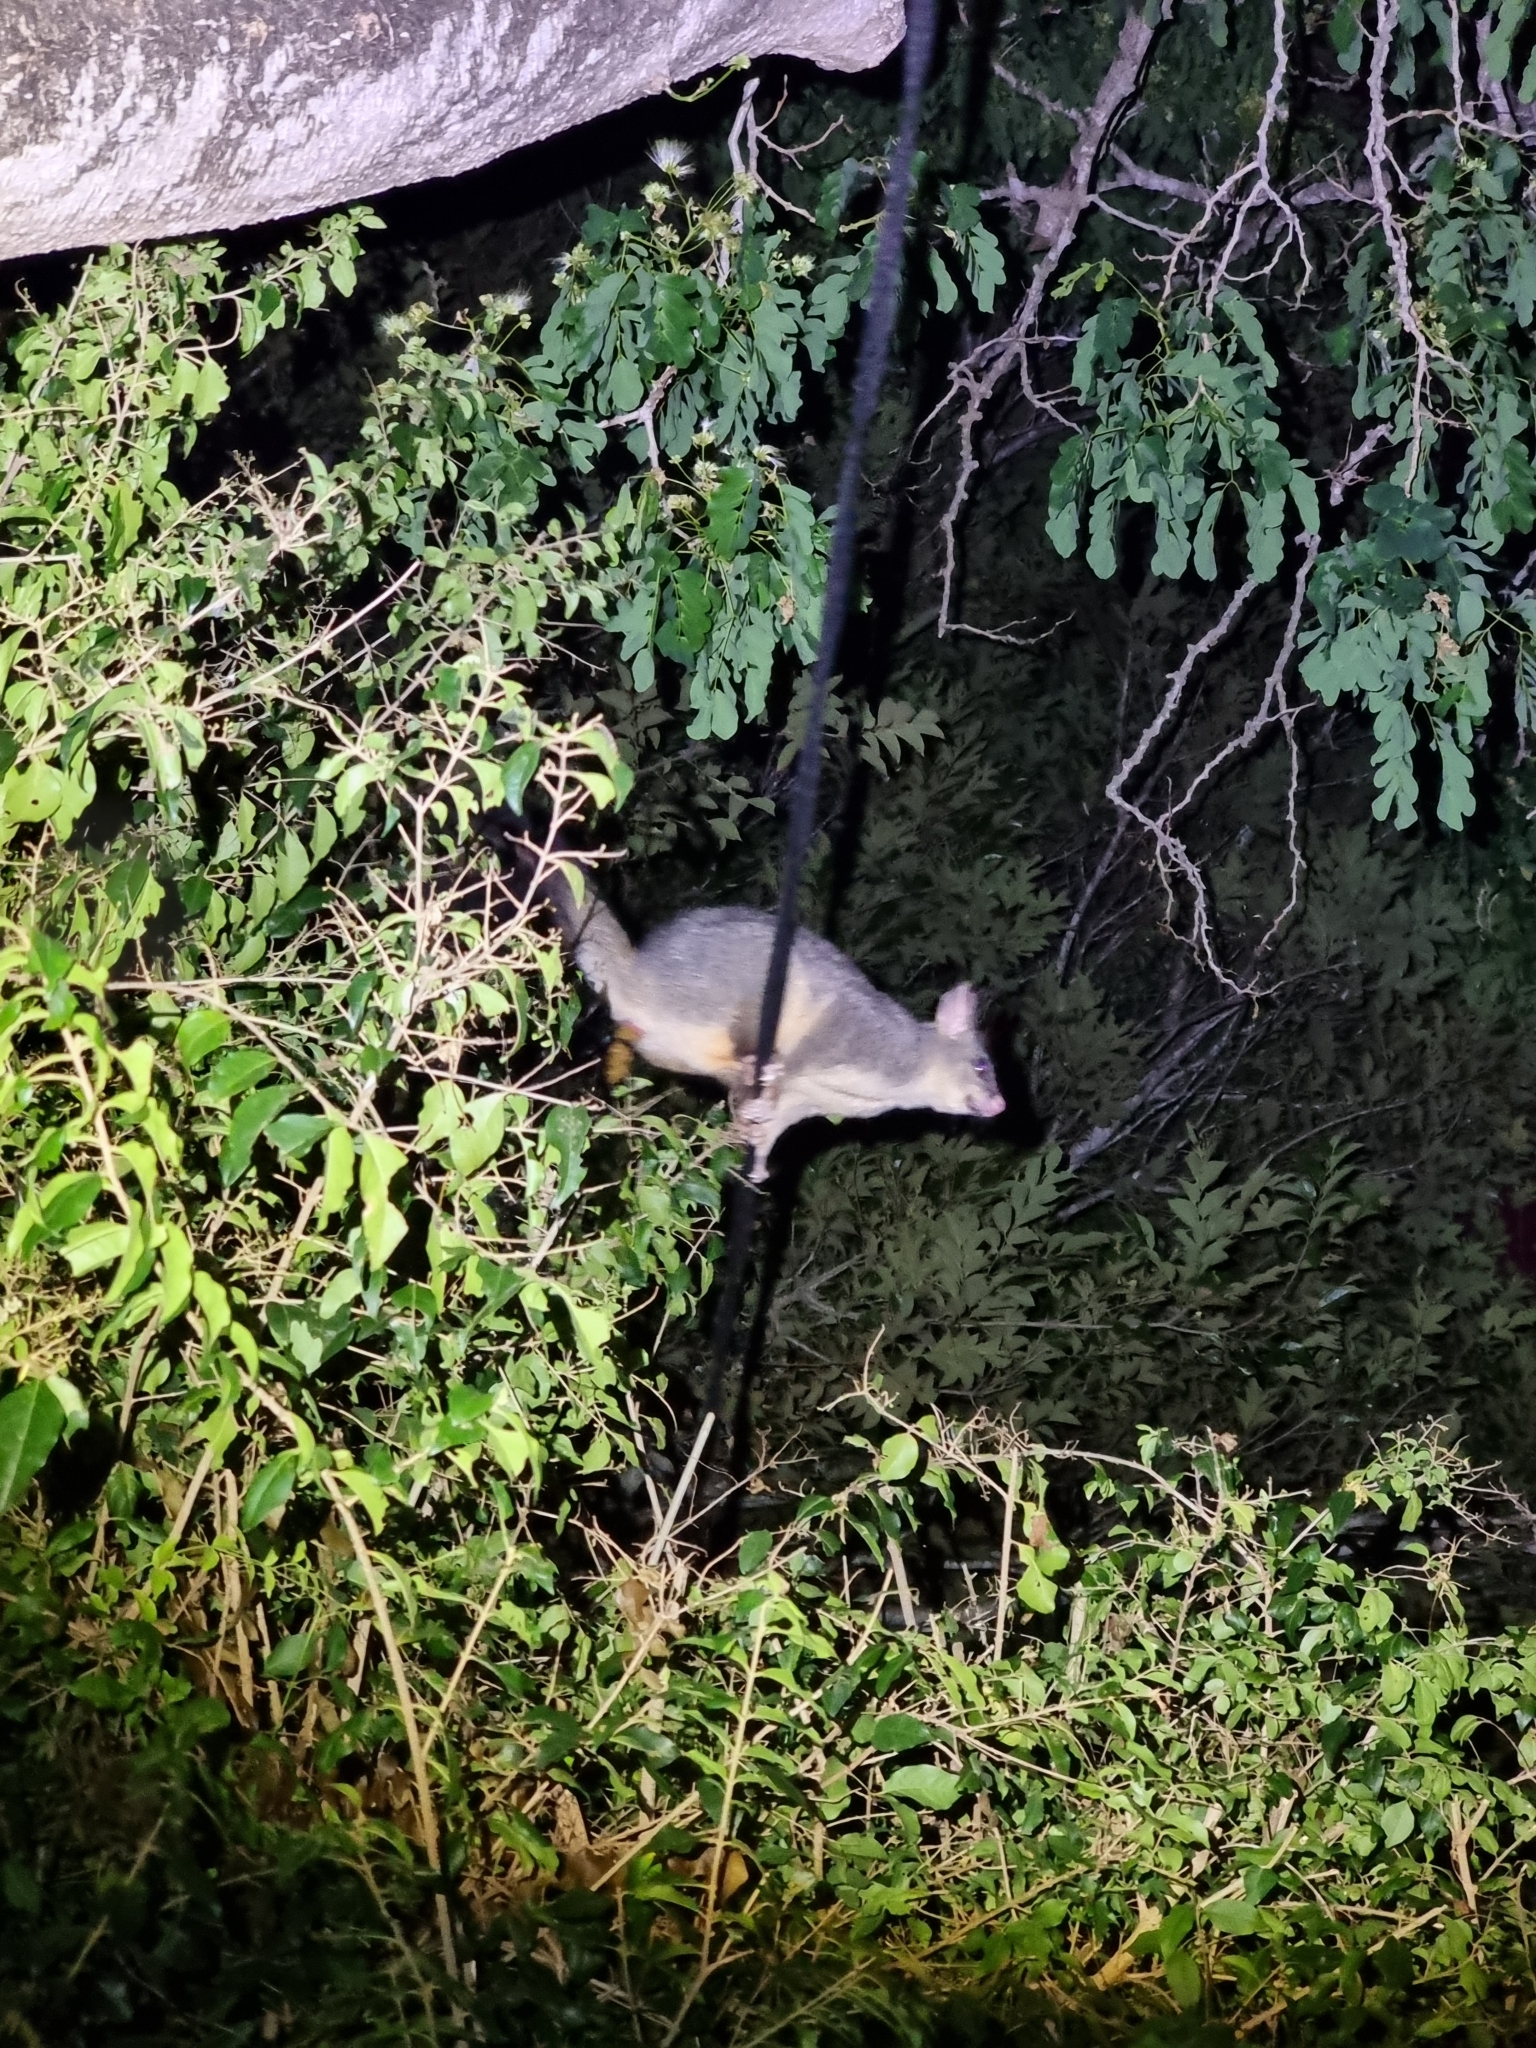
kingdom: Animalia
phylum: Chordata
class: Mammalia
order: Diprotodontia
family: Phalangeridae
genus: Trichosurus
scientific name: Trichosurus vulpecula
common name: Common brushtail
